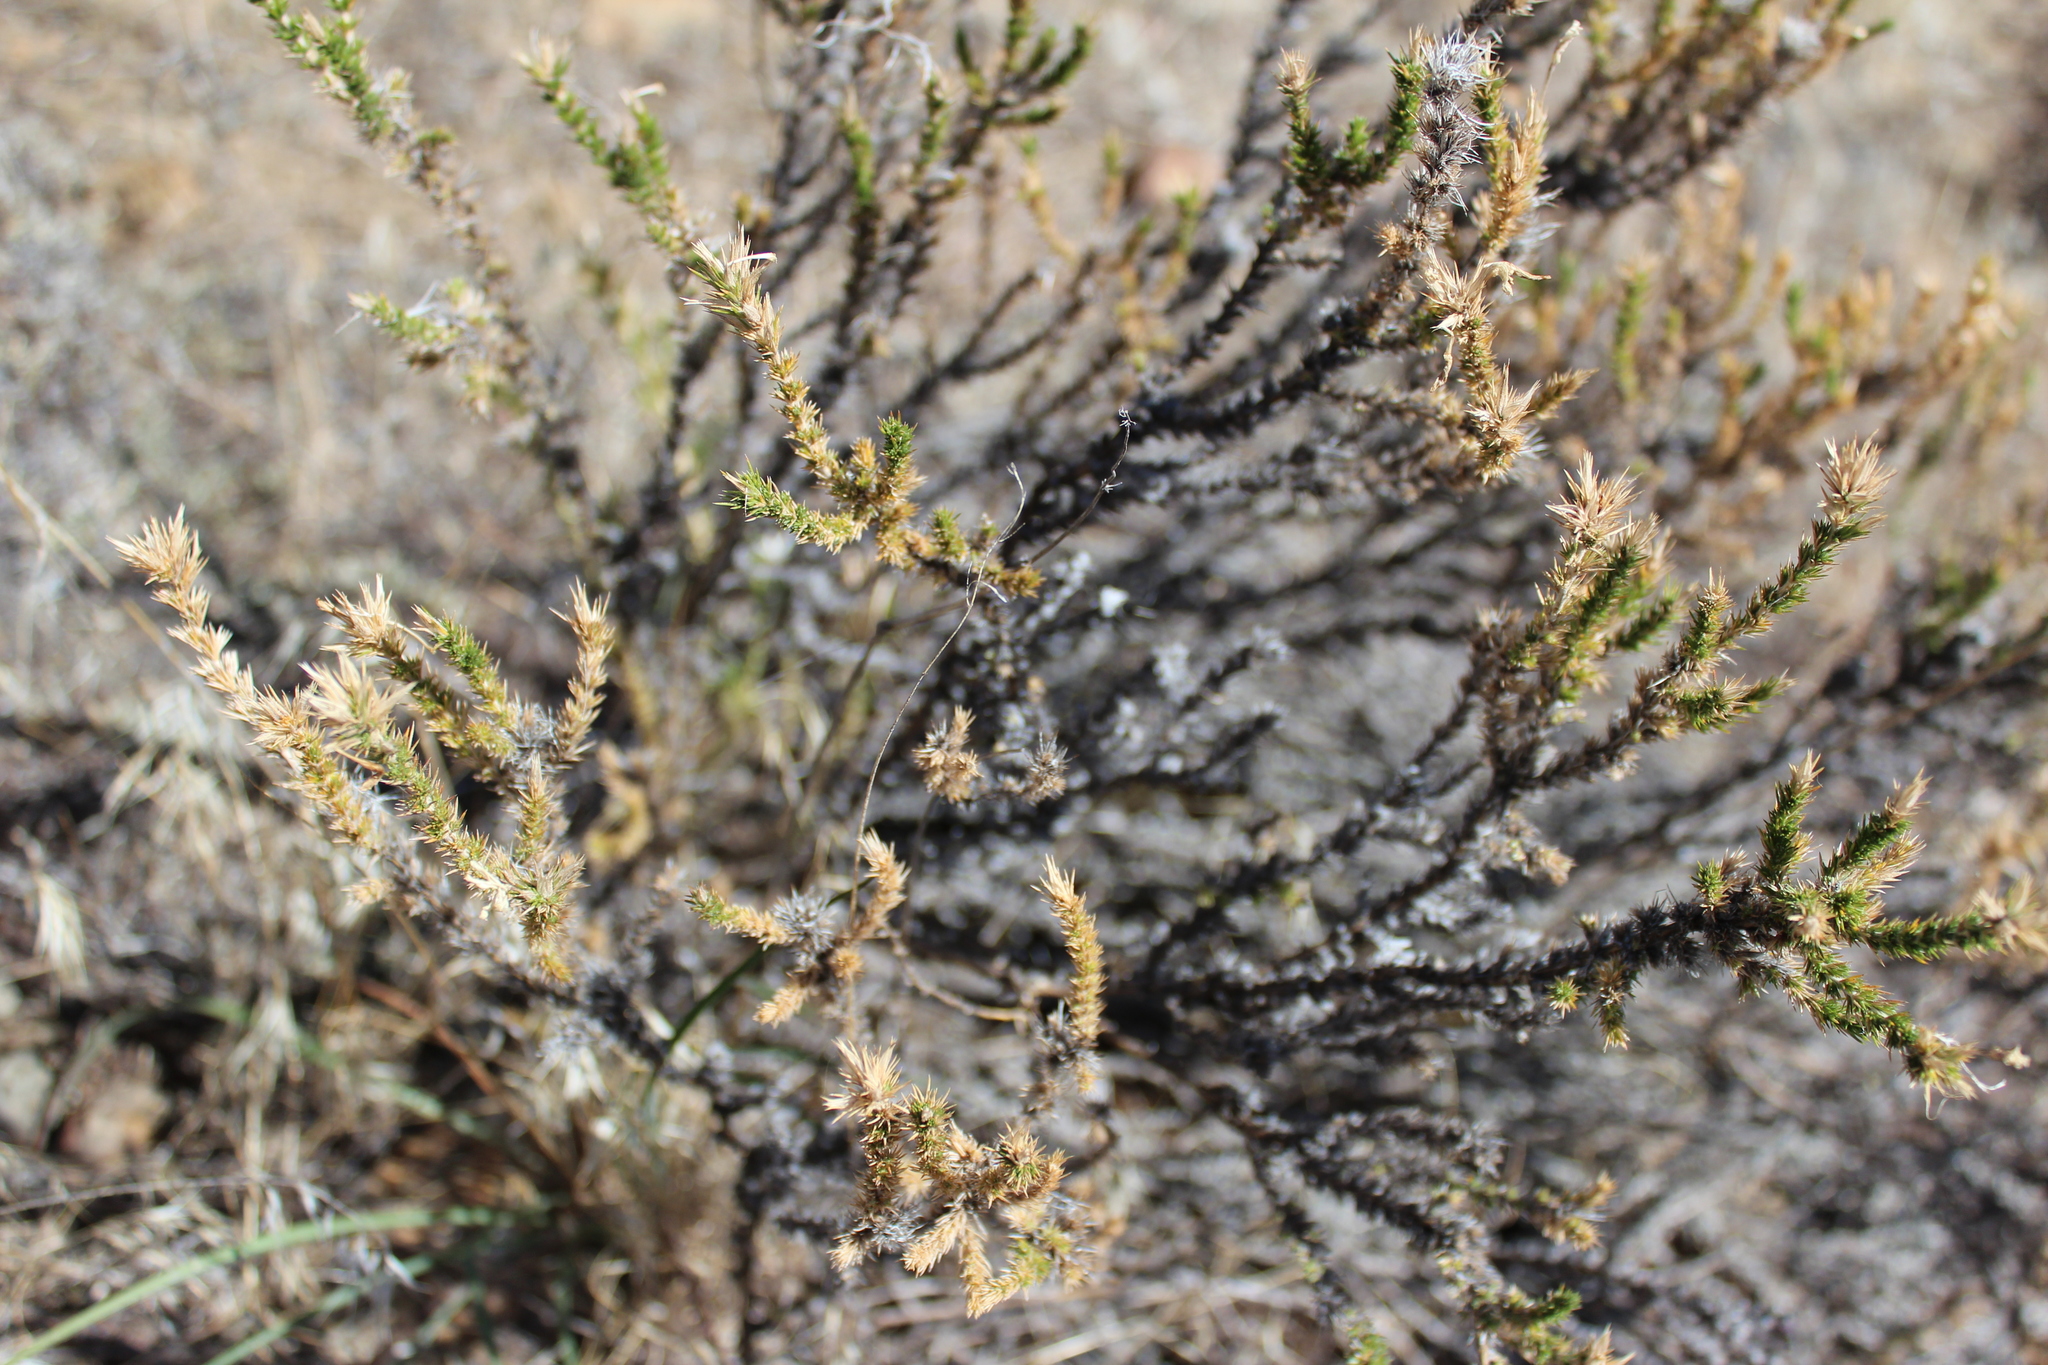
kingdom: Plantae
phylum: Tracheophyta
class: Magnoliopsida
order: Ericales
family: Polemoniaceae
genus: Linanthus
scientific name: Linanthus pungens
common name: Granite prickly phlox
